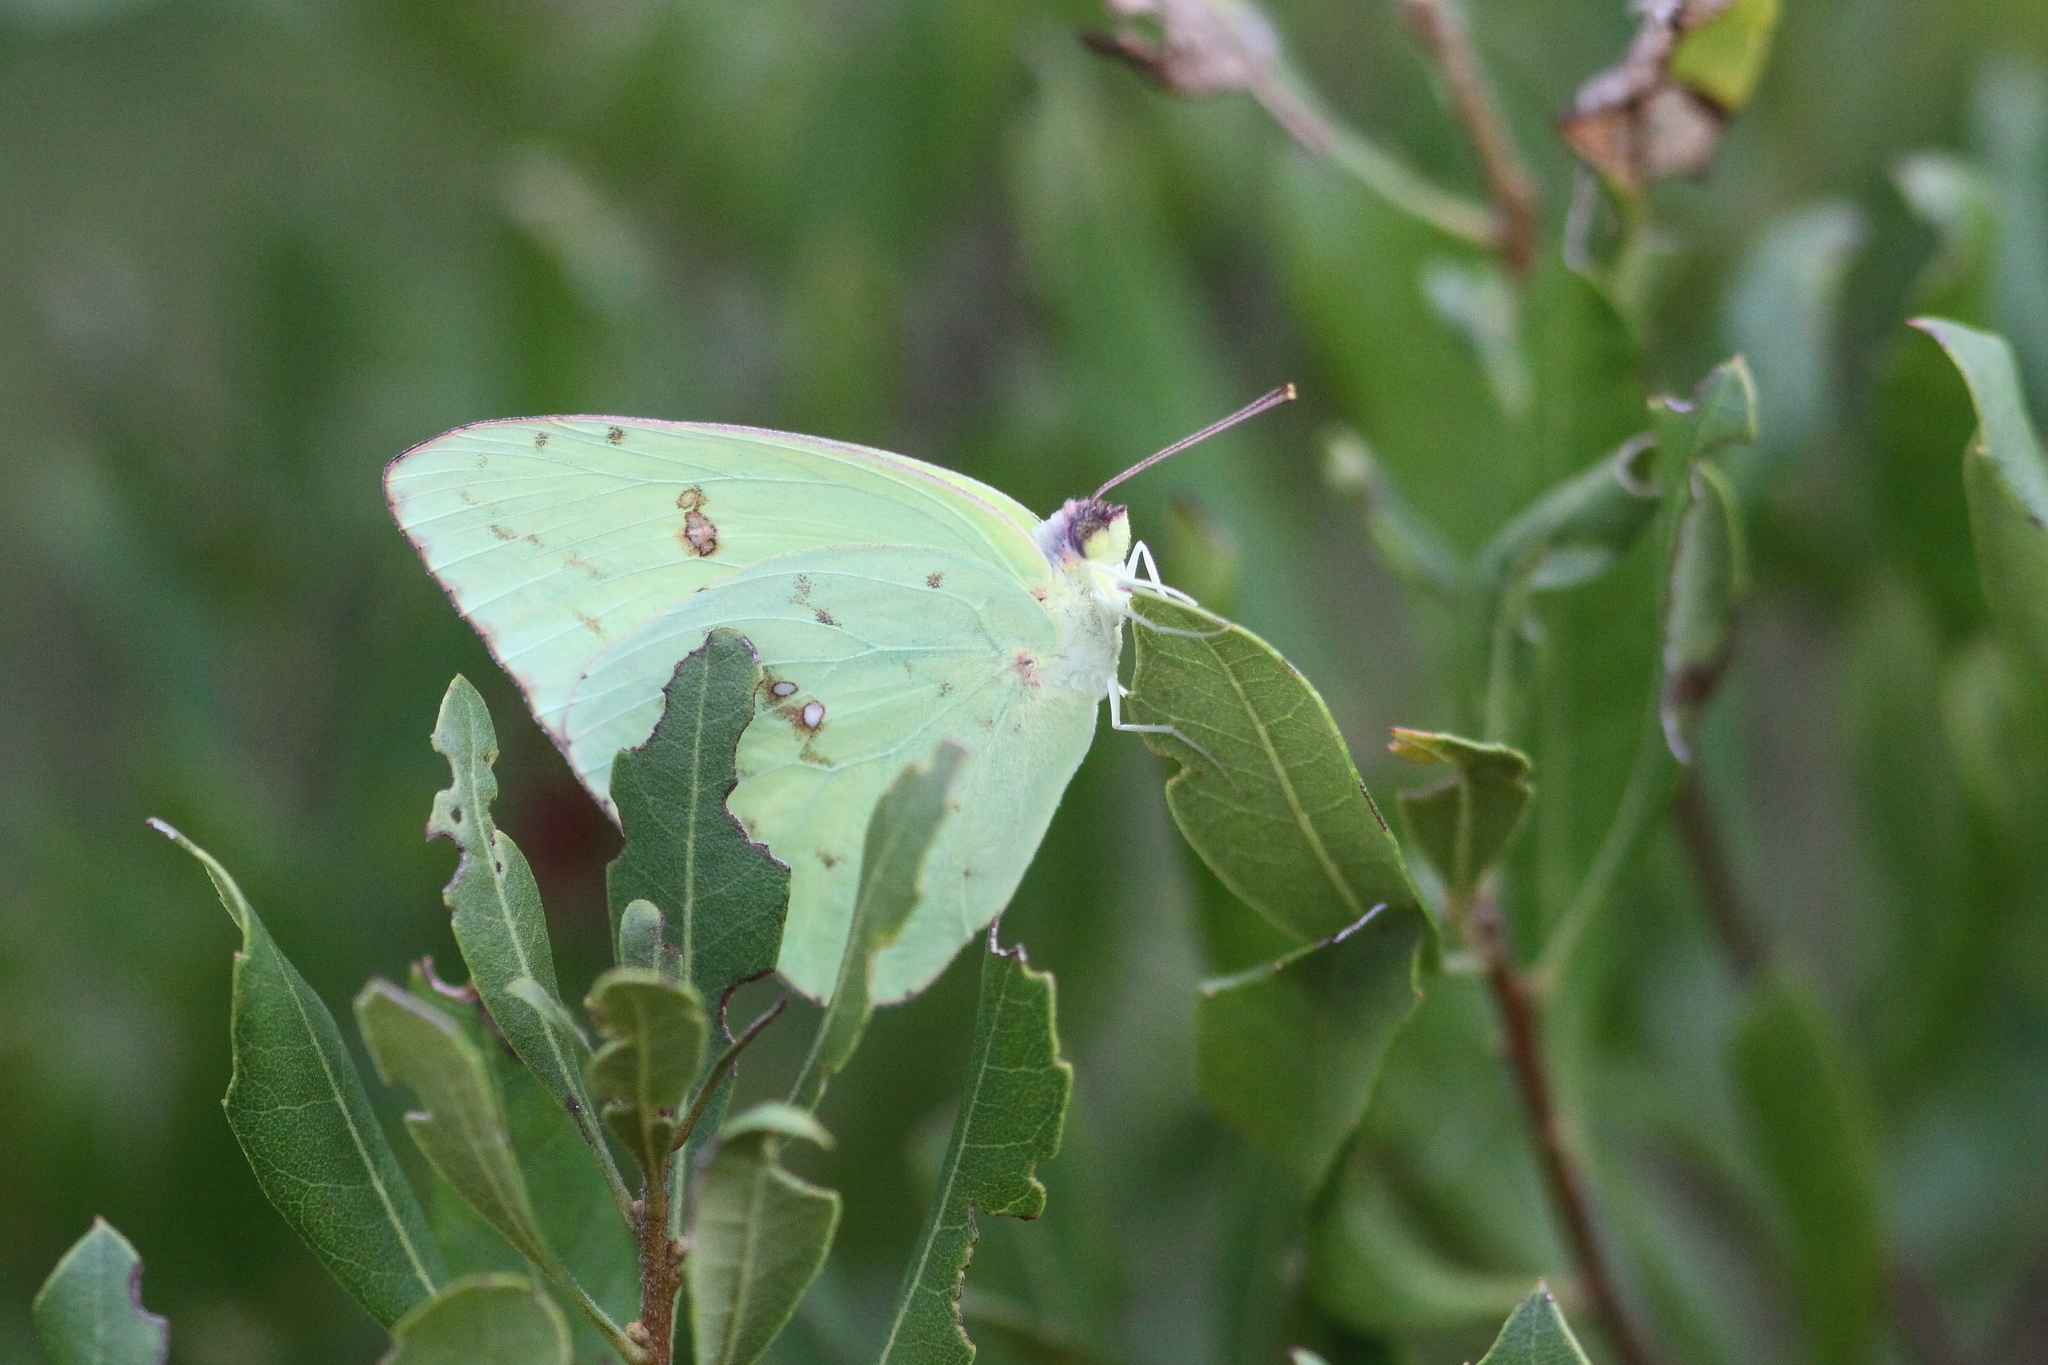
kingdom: Animalia
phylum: Arthropoda
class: Insecta
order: Lepidoptera
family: Pieridae
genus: Phoebis
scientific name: Phoebis sennae
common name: Cloudless sulphur
